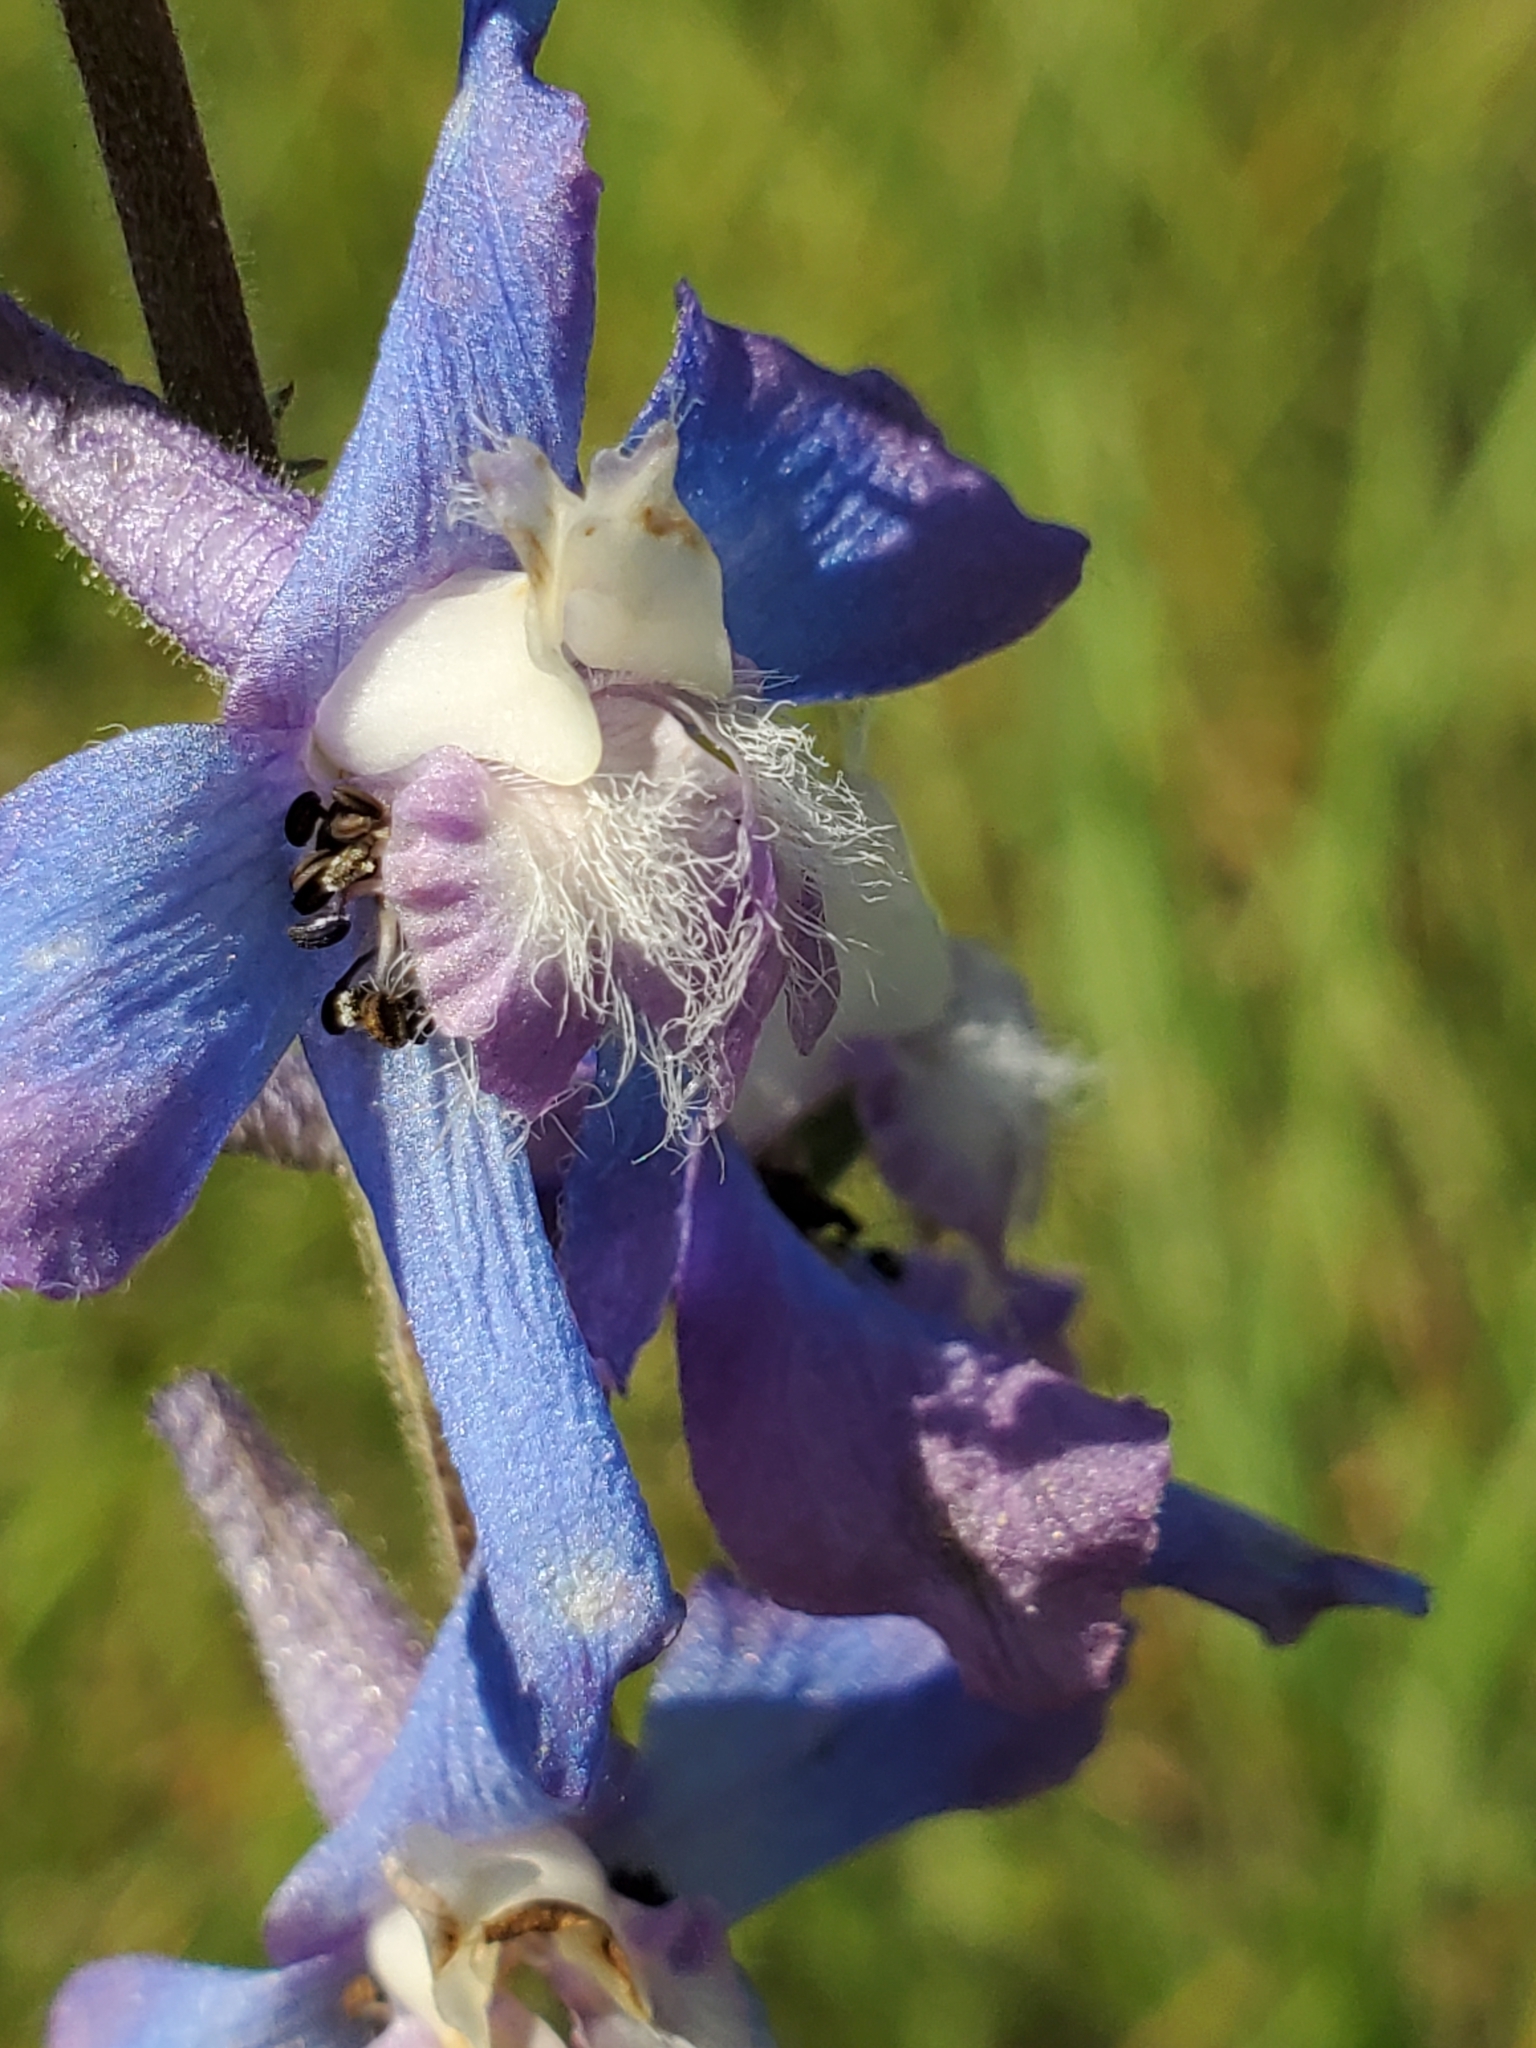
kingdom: Plantae
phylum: Tracheophyta
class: Magnoliopsida
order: Ranunculales
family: Ranunculaceae
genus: Delphinium
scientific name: Delphinium carolinianum
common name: Carolina larkspur
